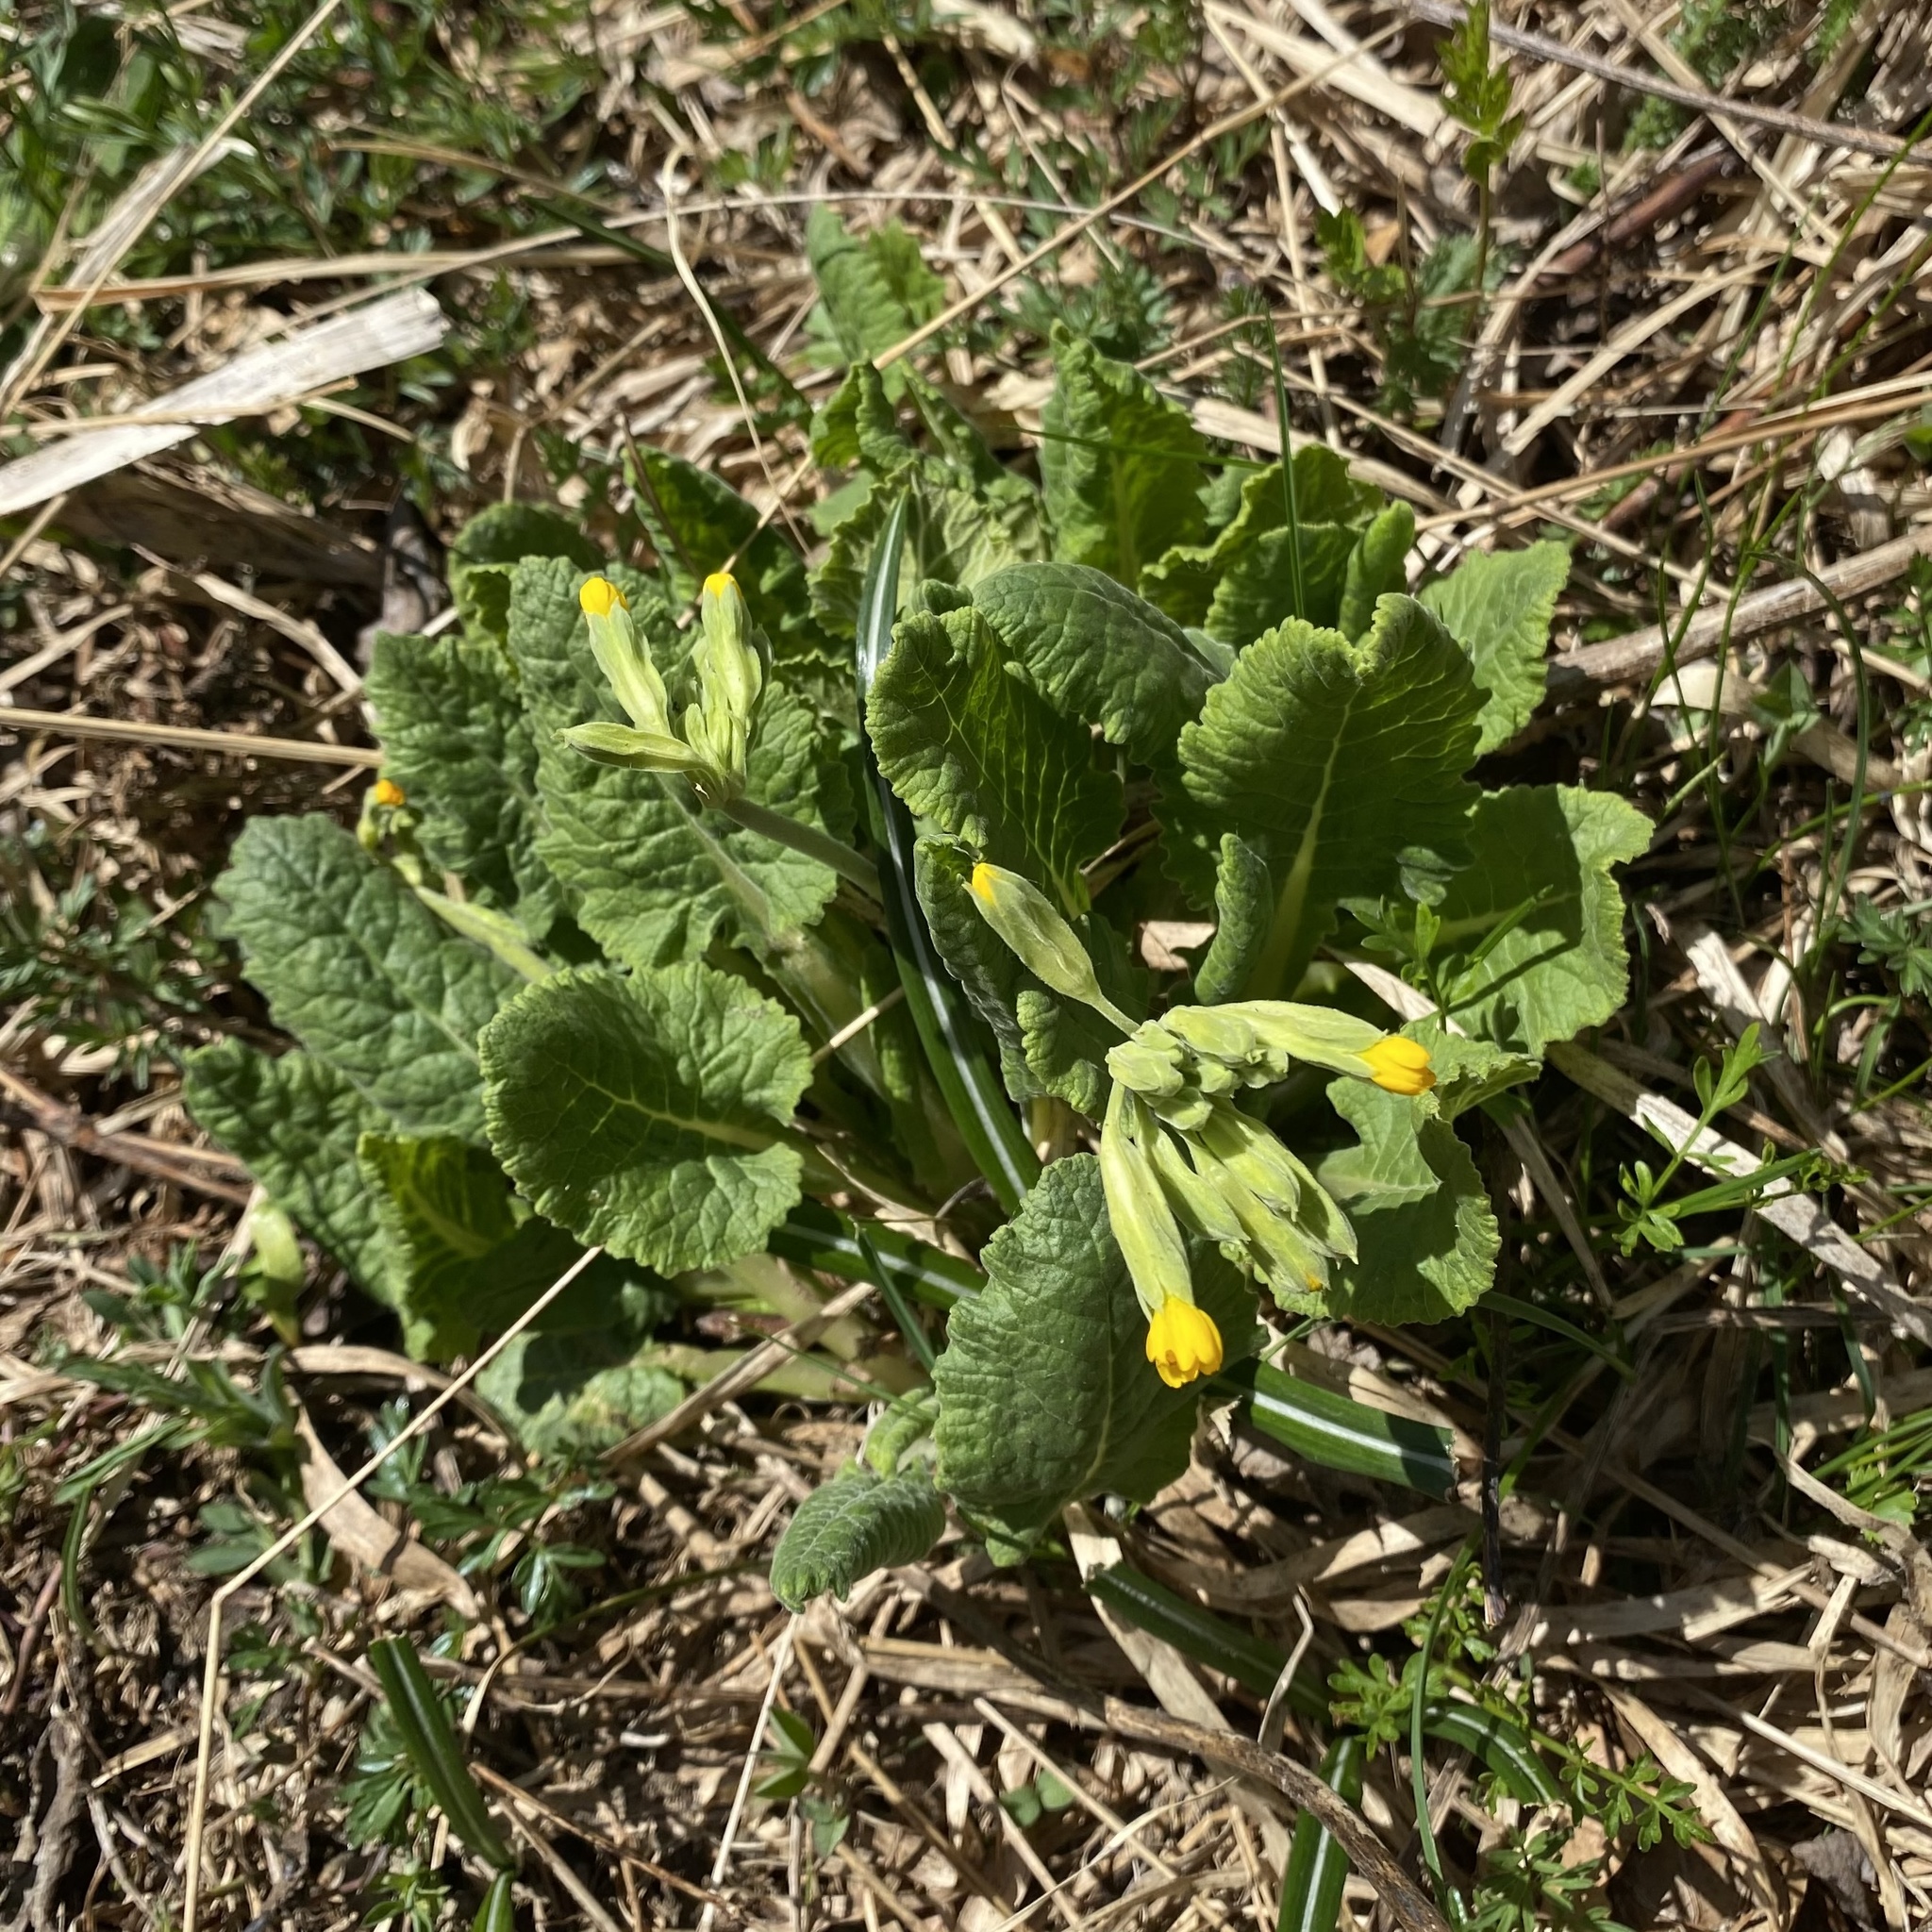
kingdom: Plantae
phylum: Tracheophyta
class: Magnoliopsida
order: Ericales
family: Primulaceae
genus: Primula
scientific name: Primula veris
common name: Cowslip
